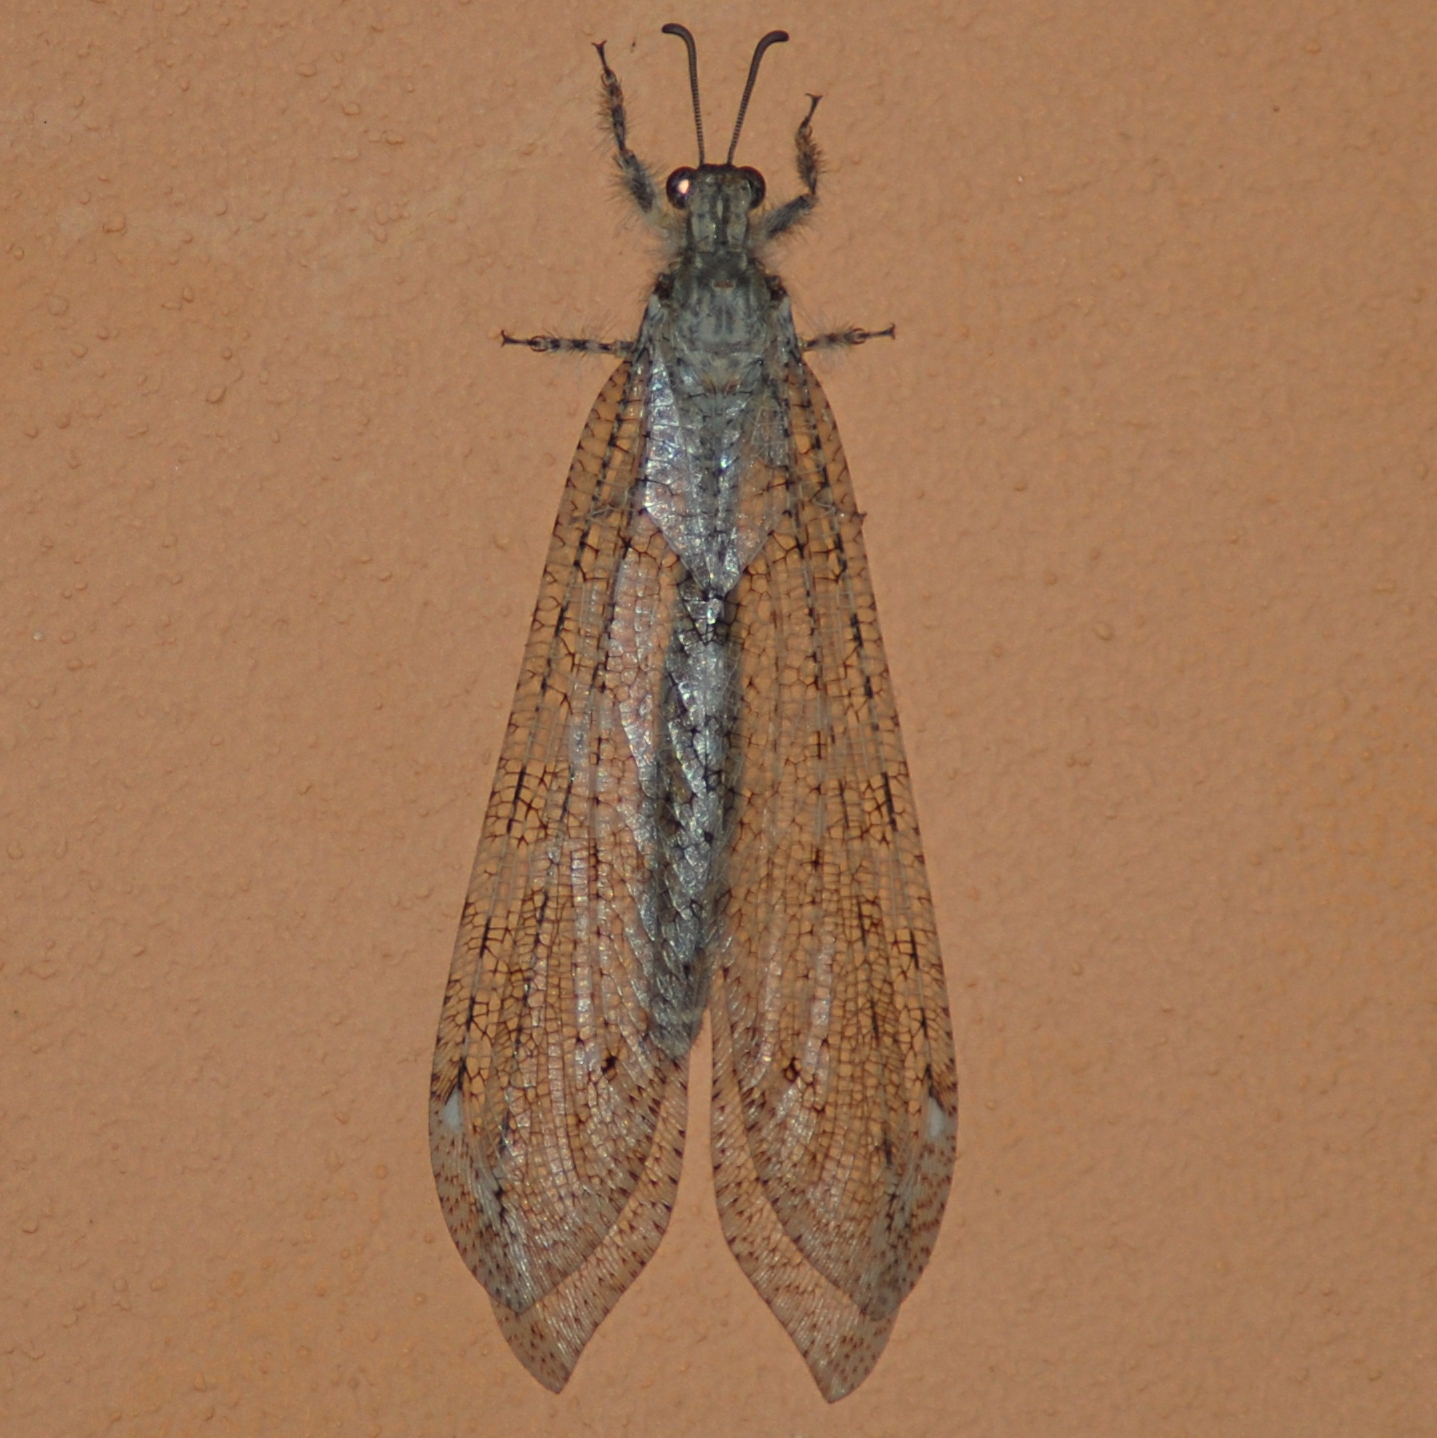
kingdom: Animalia
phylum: Arthropoda
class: Insecta
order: Neuroptera
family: Myrmeleontidae
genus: Vella
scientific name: Vella fallax
